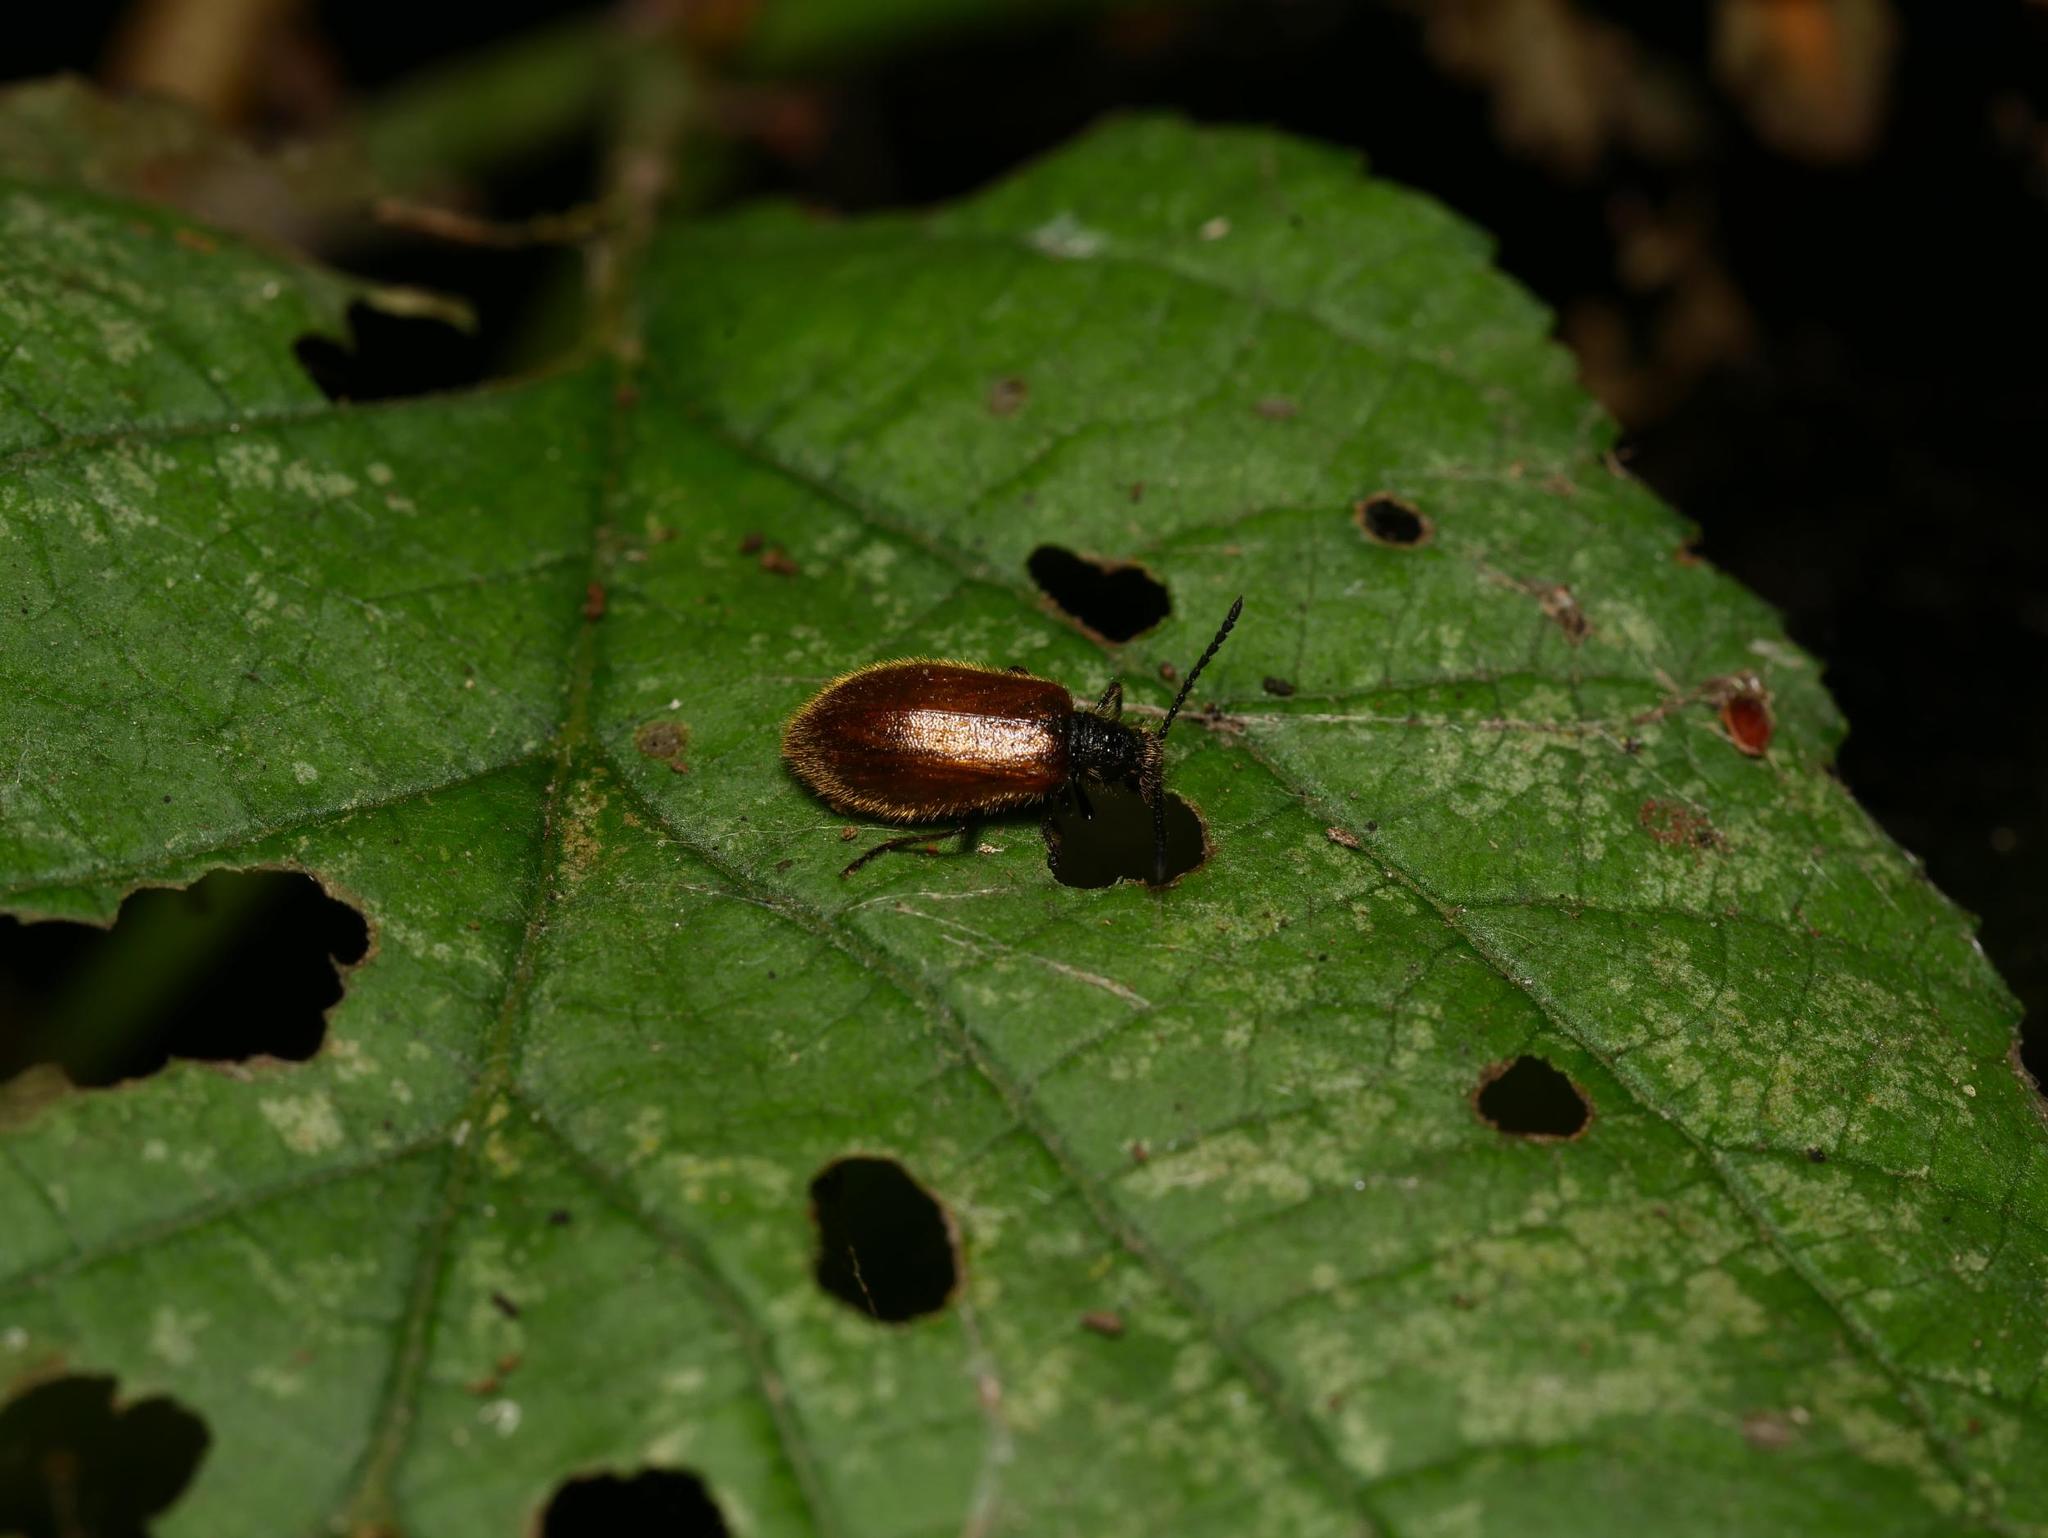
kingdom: Animalia
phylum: Arthropoda
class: Insecta
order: Coleoptera
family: Tenebrionidae
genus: Lagria
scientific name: Lagria hirta
